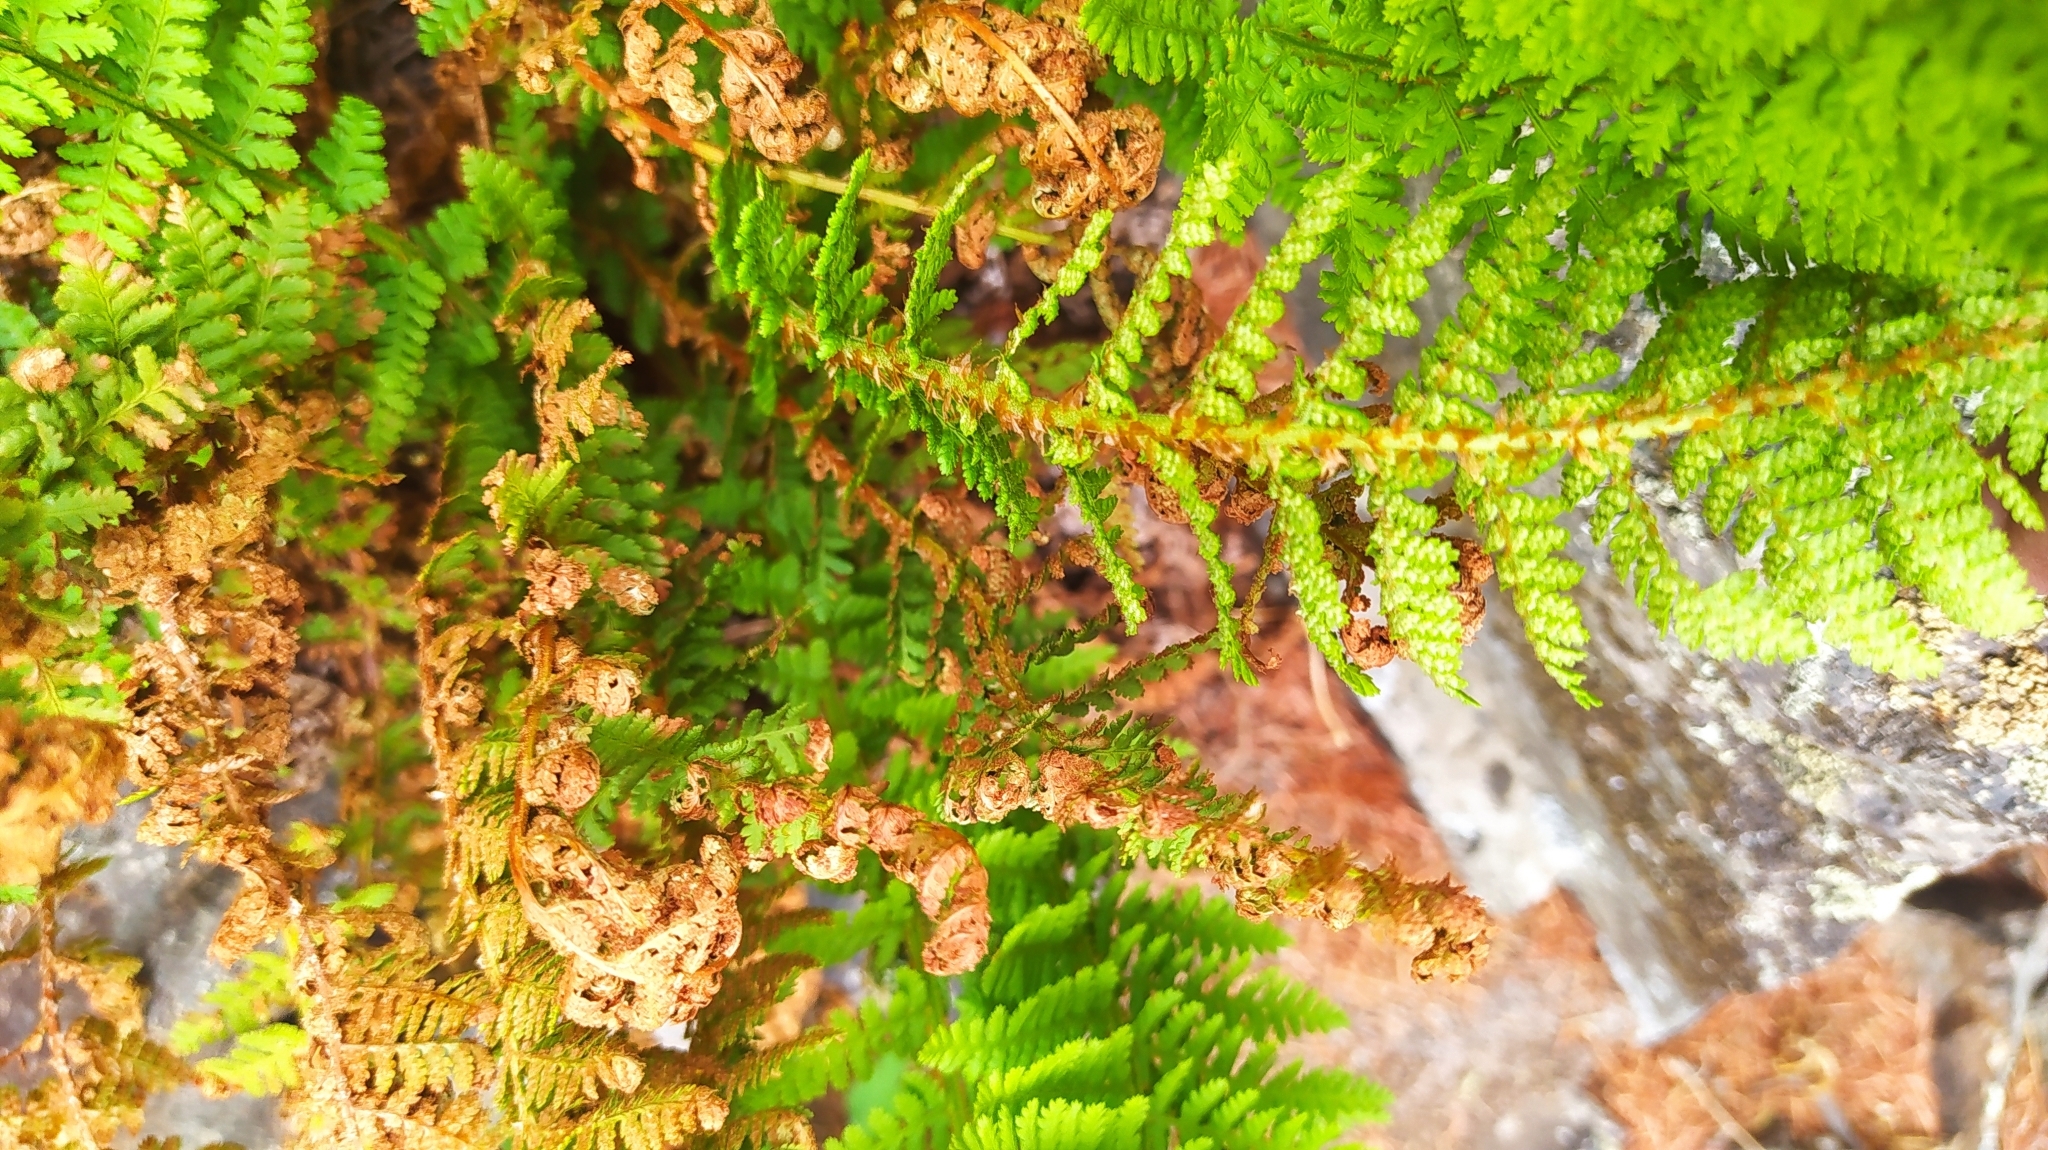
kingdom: Plantae
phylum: Tracheophyta
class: Polypodiopsida
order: Polypodiales
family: Dryopteridaceae
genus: Dryopteris
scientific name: Dryopteris fragrans
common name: Fragrant wood fern
